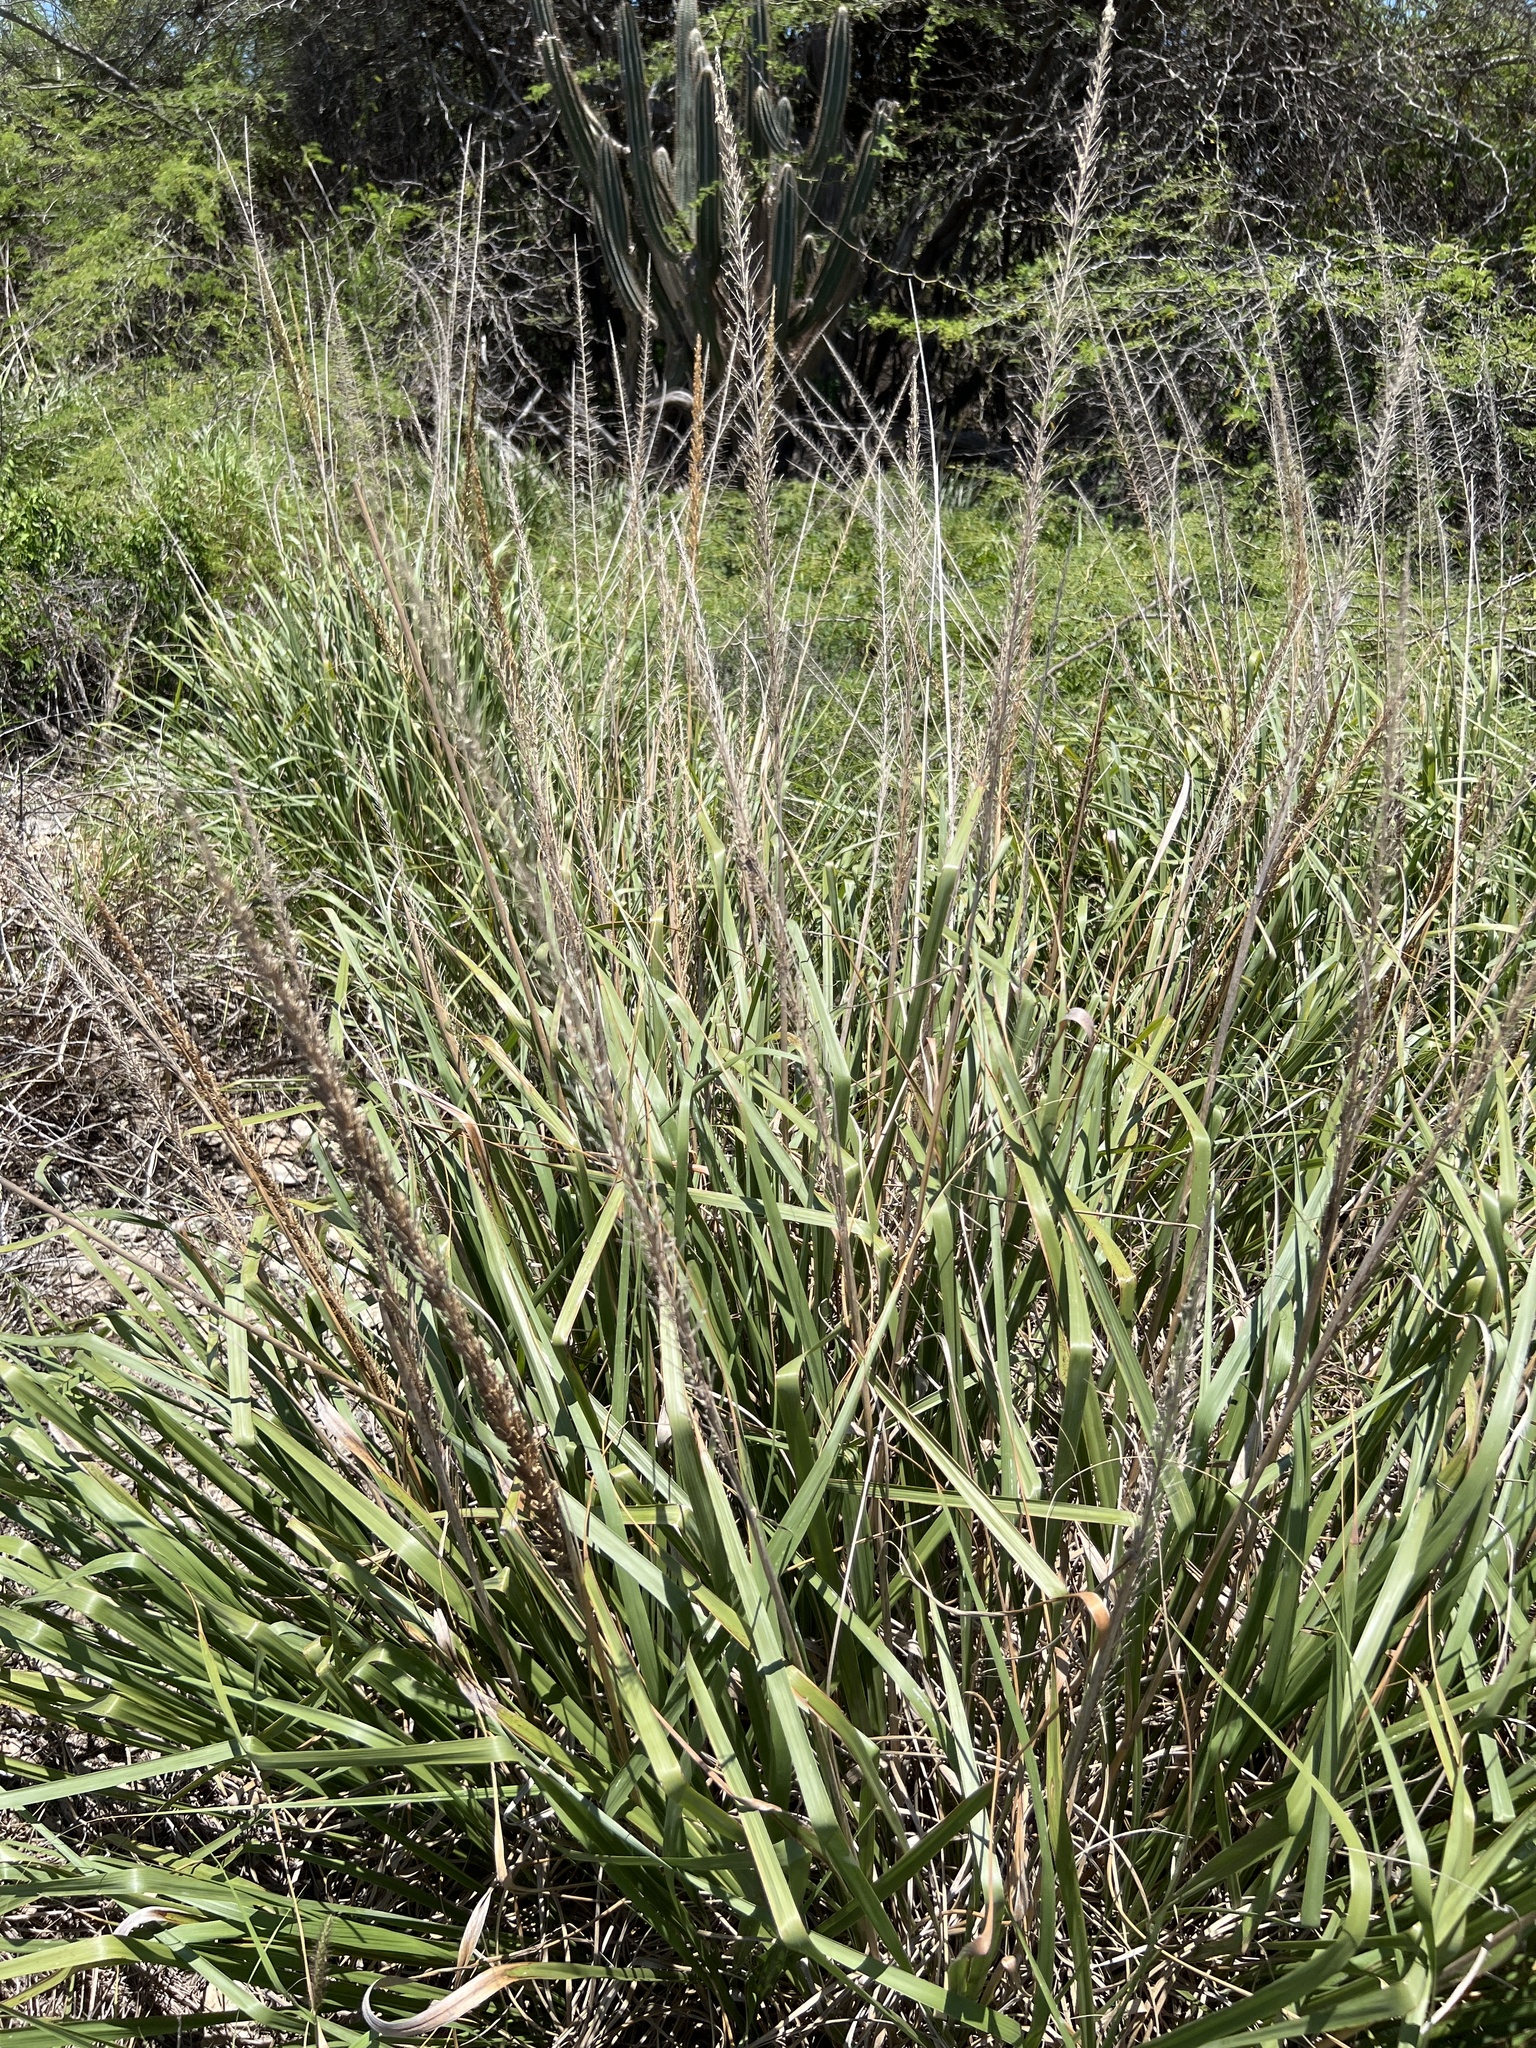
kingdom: Plantae
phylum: Tracheophyta
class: Liliopsida
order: Poales
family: Poaceae
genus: Uniola
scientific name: Uniola virgata
